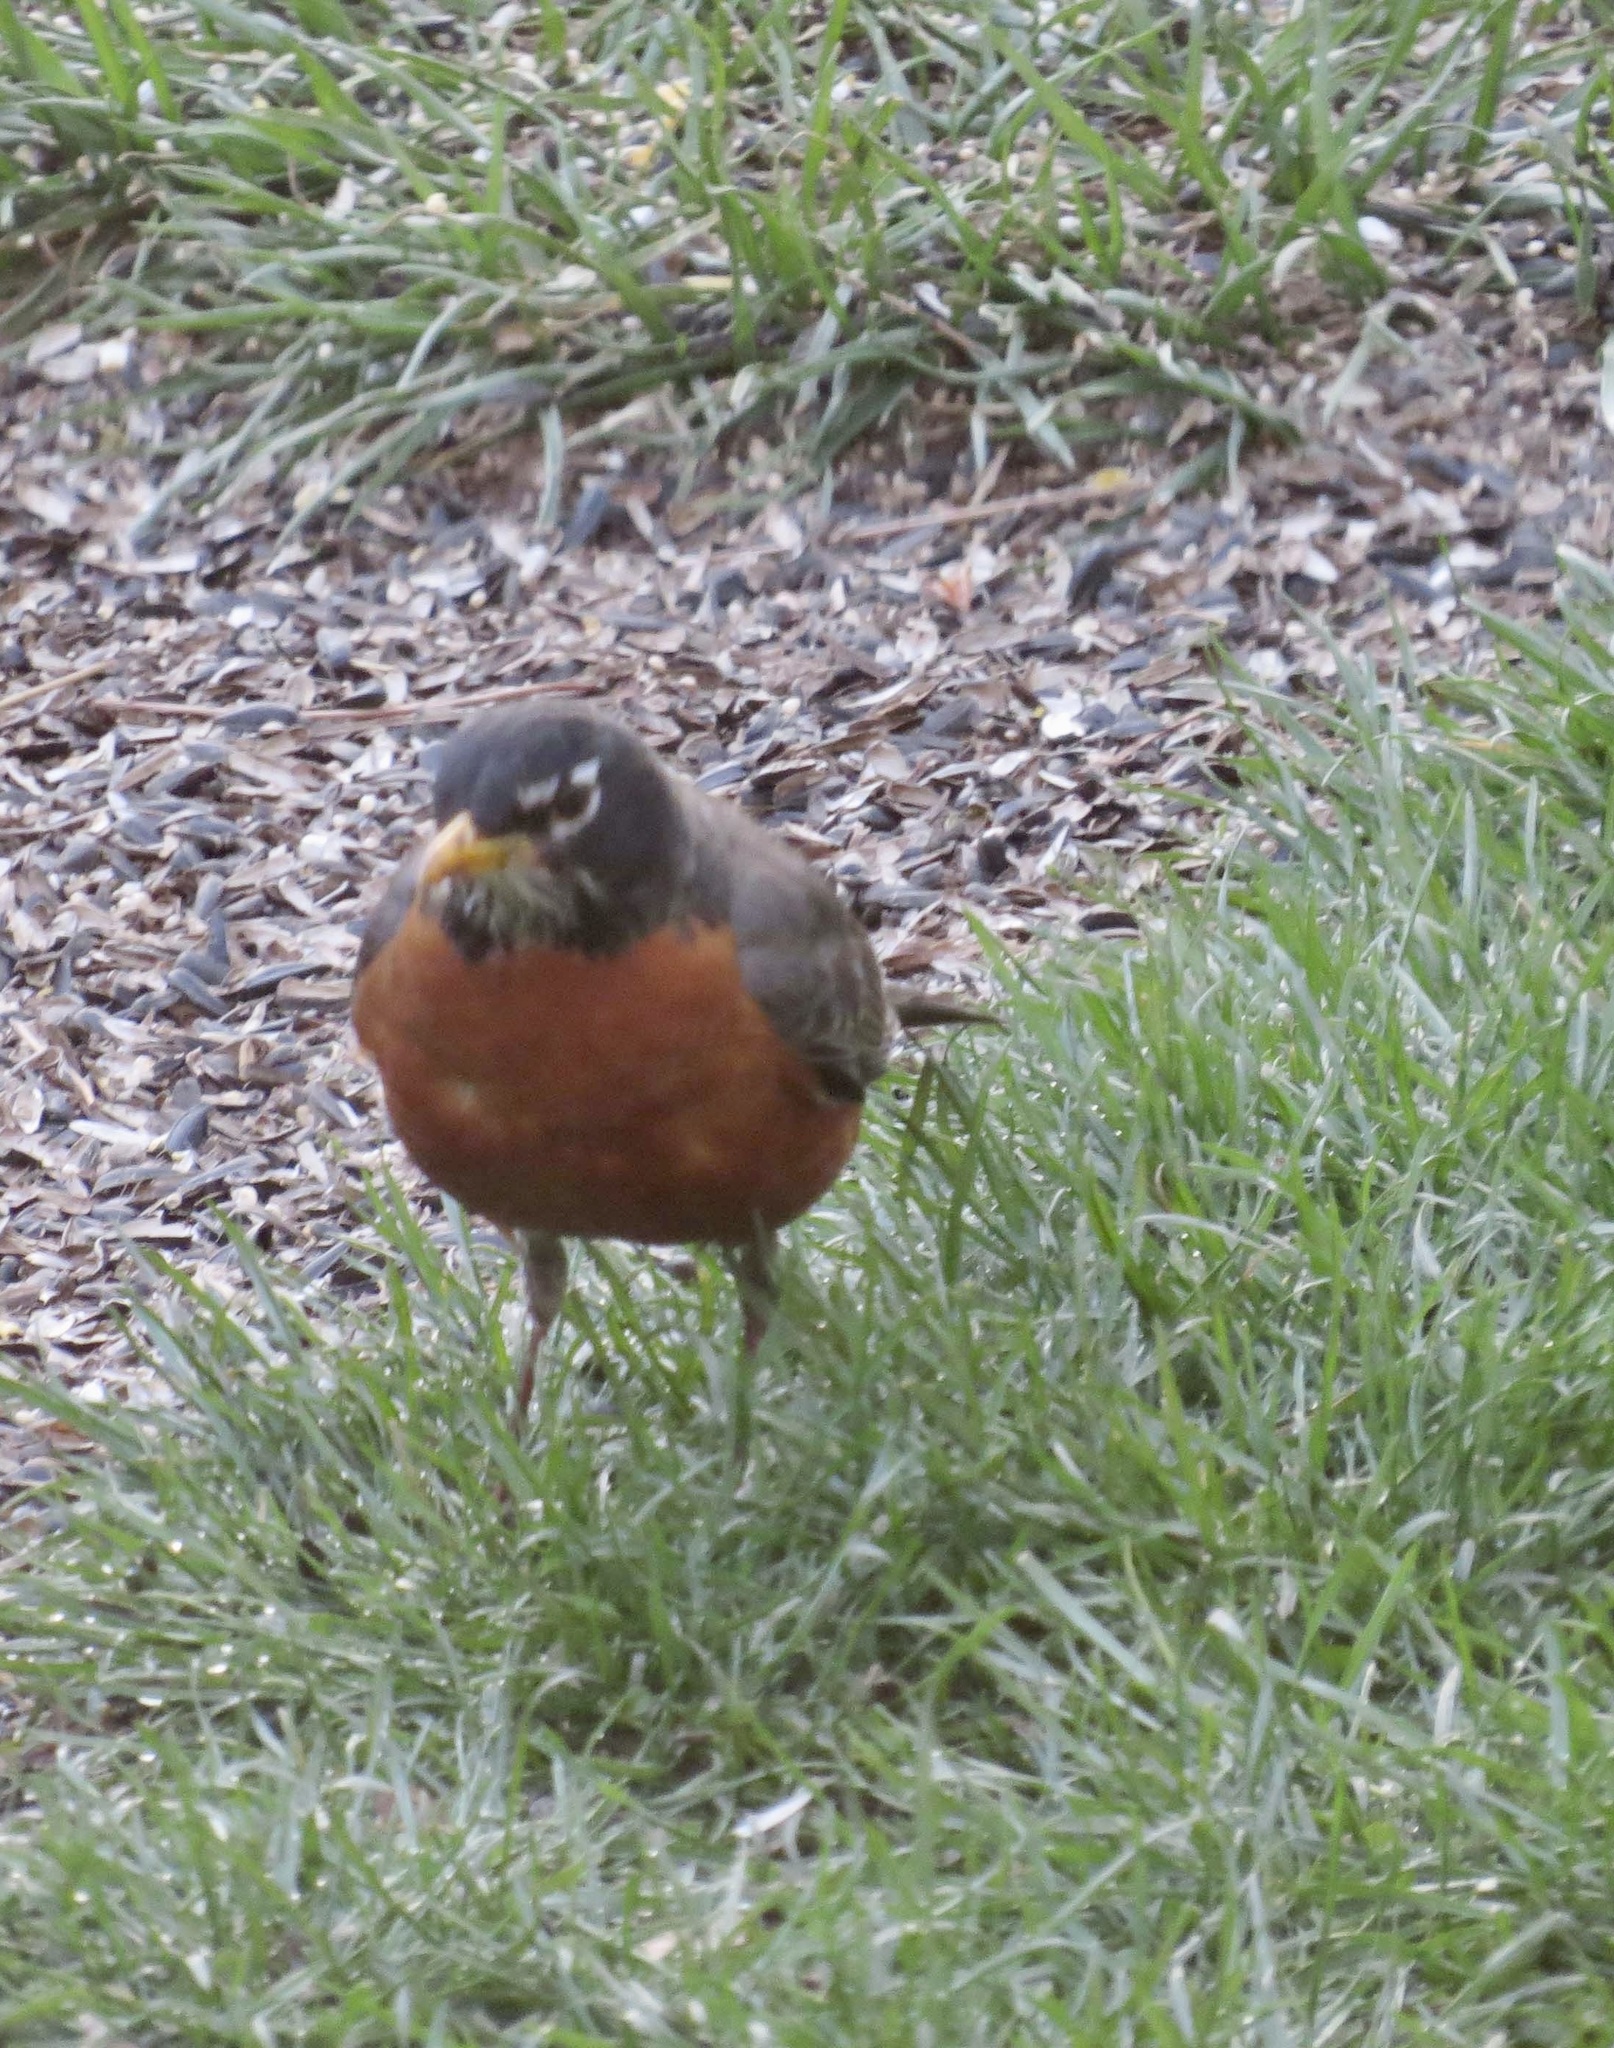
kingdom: Animalia
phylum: Chordata
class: Aves
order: Passeriformes
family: Turdidae
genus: Turdus
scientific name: Turdus migratorius
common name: American robin
